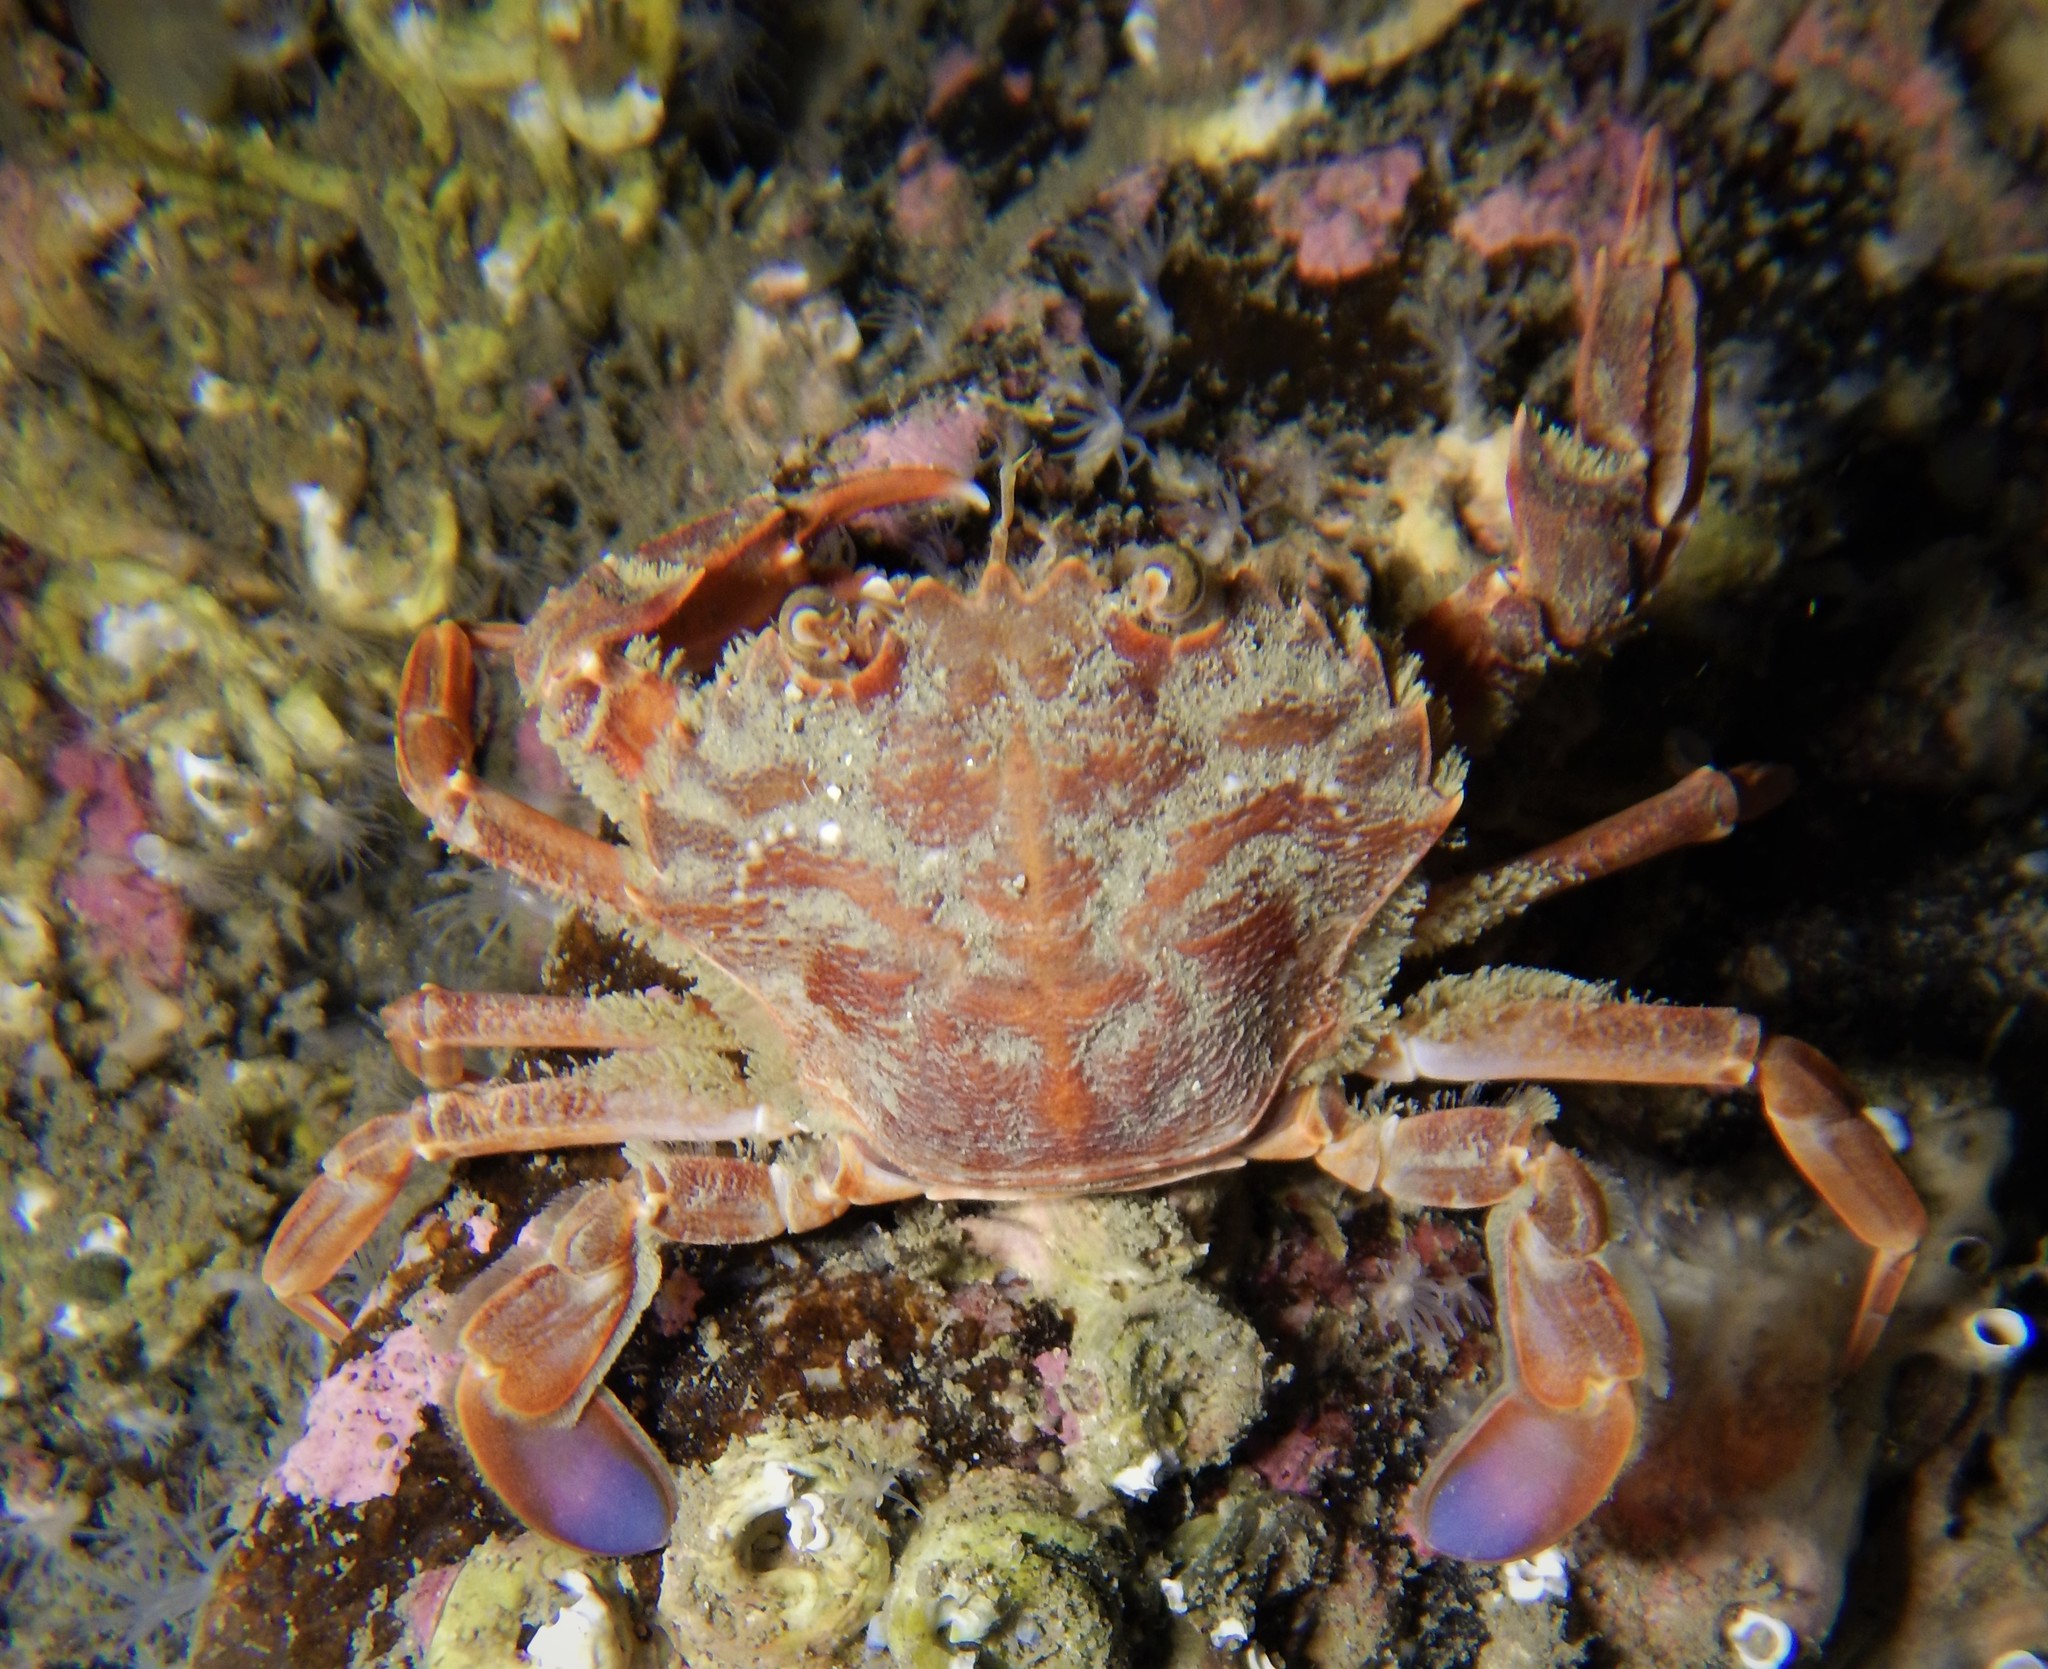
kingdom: Animalia
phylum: Arthropoda
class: Malacostraca
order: Decapoda
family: Polybiidae
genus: Liocarcinus
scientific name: Liocarcinus depurator
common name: Cleanser crab
